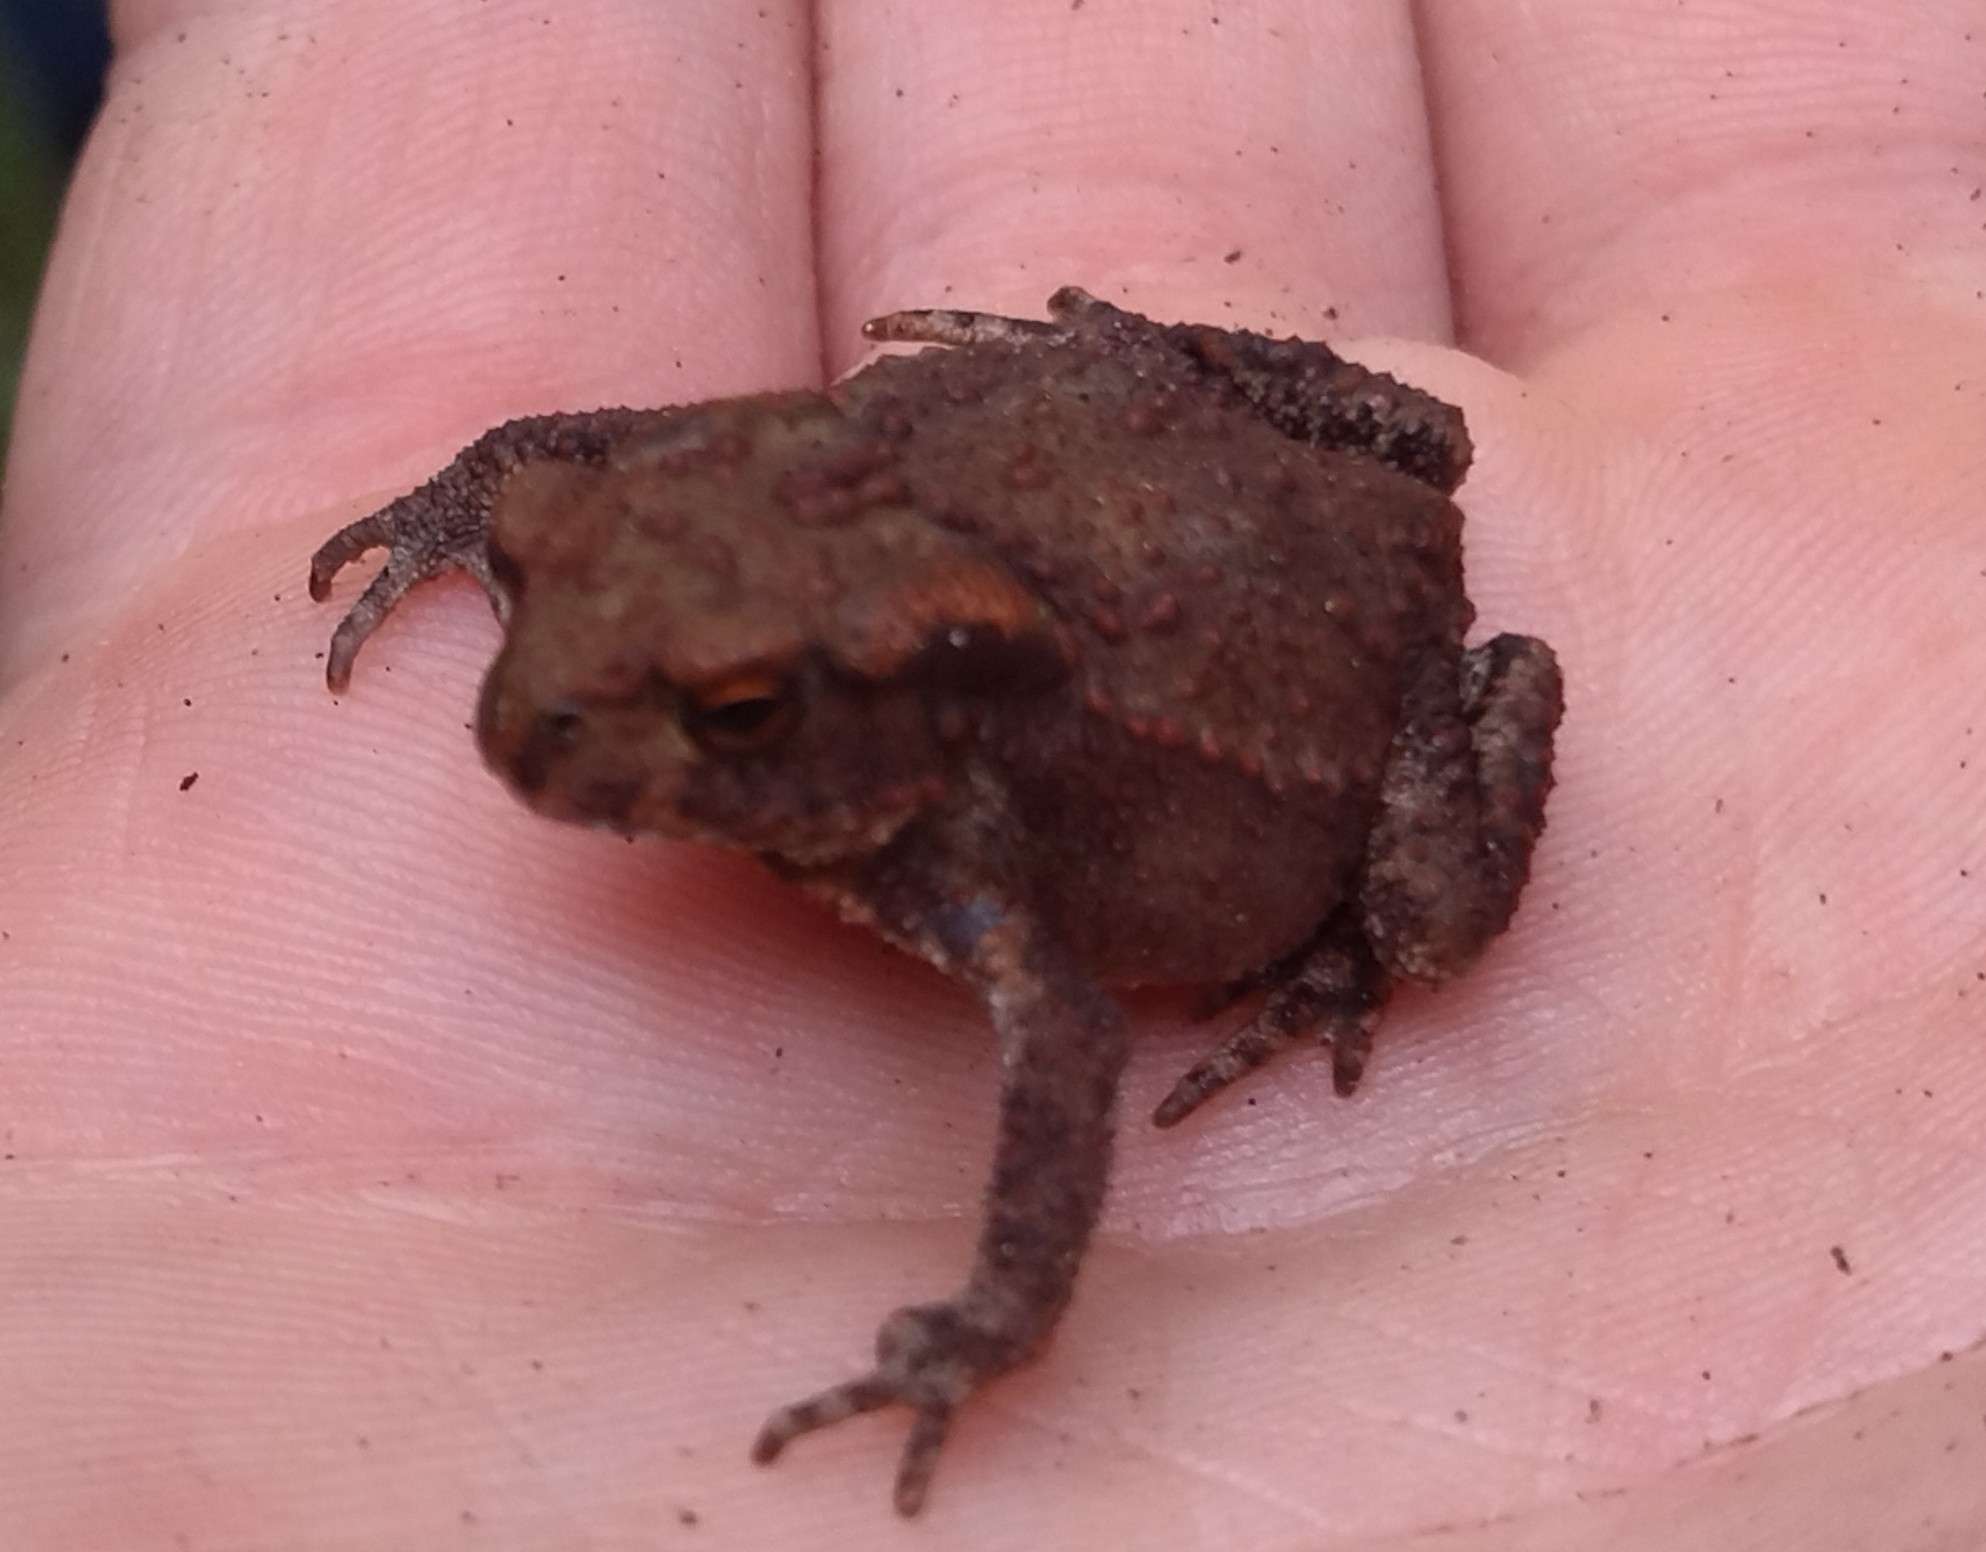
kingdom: Animalia
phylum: Chordata
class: Amphibia
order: Anura
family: Bufonidae
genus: Bufo
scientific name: Bufo bufo
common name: Common toad
